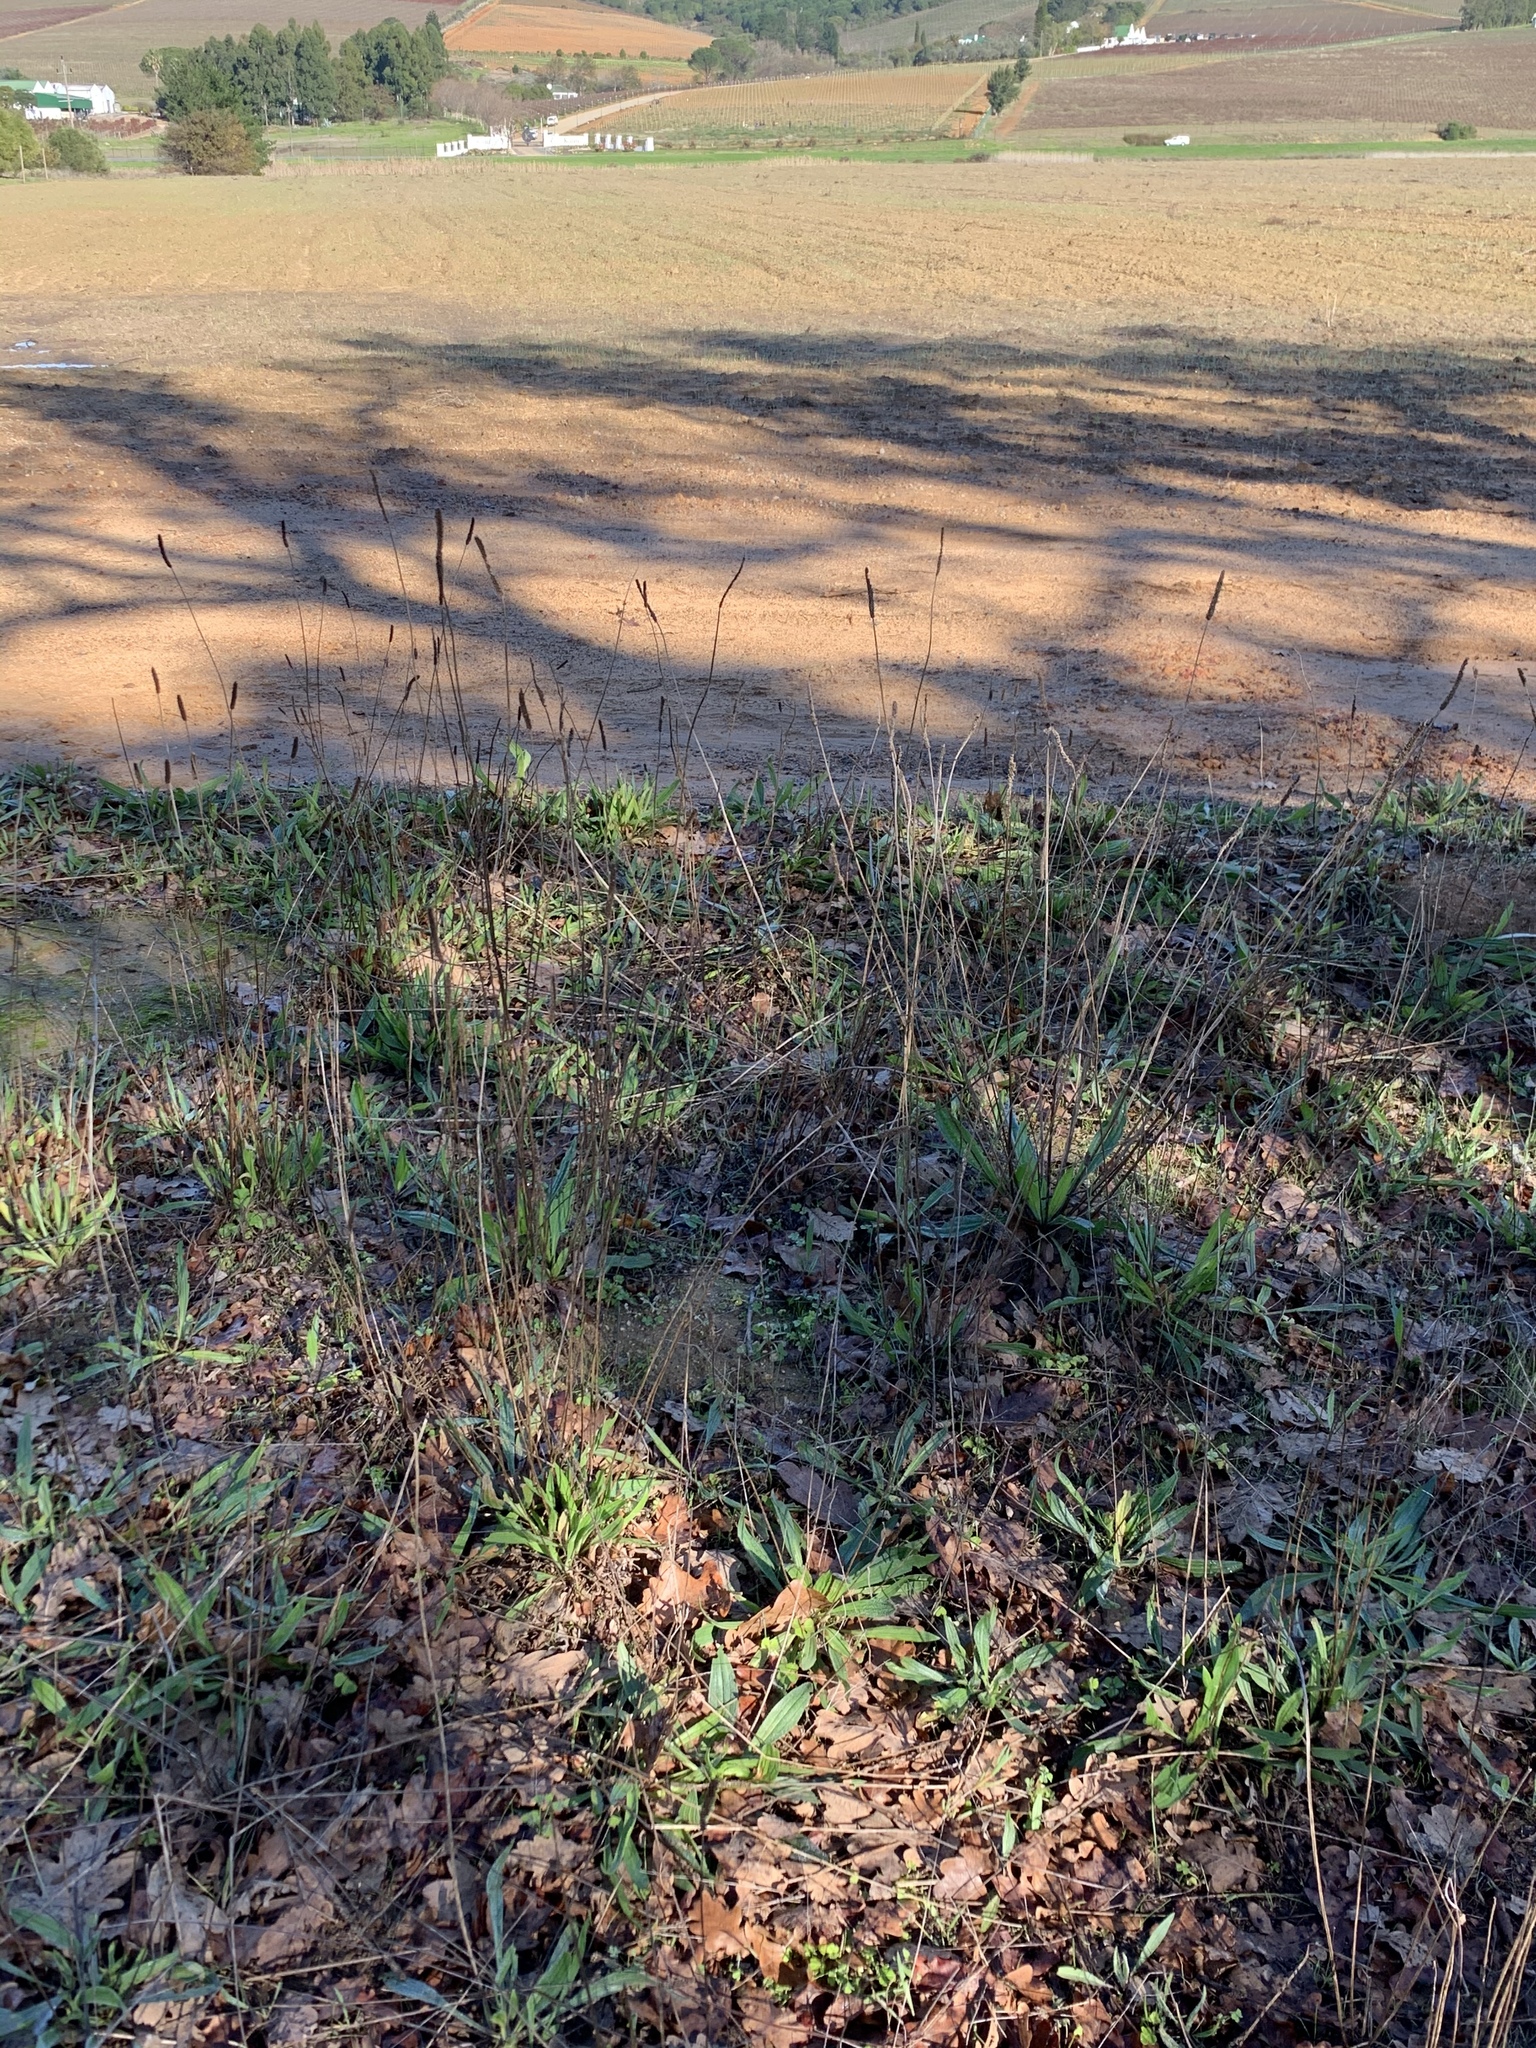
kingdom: Plantae
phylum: Tracheophyta
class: Magnoliopsida
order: Lamiales
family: Plantaginaceae
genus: Plantago
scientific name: Plantago lanceolata
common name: Ribwort plantain
